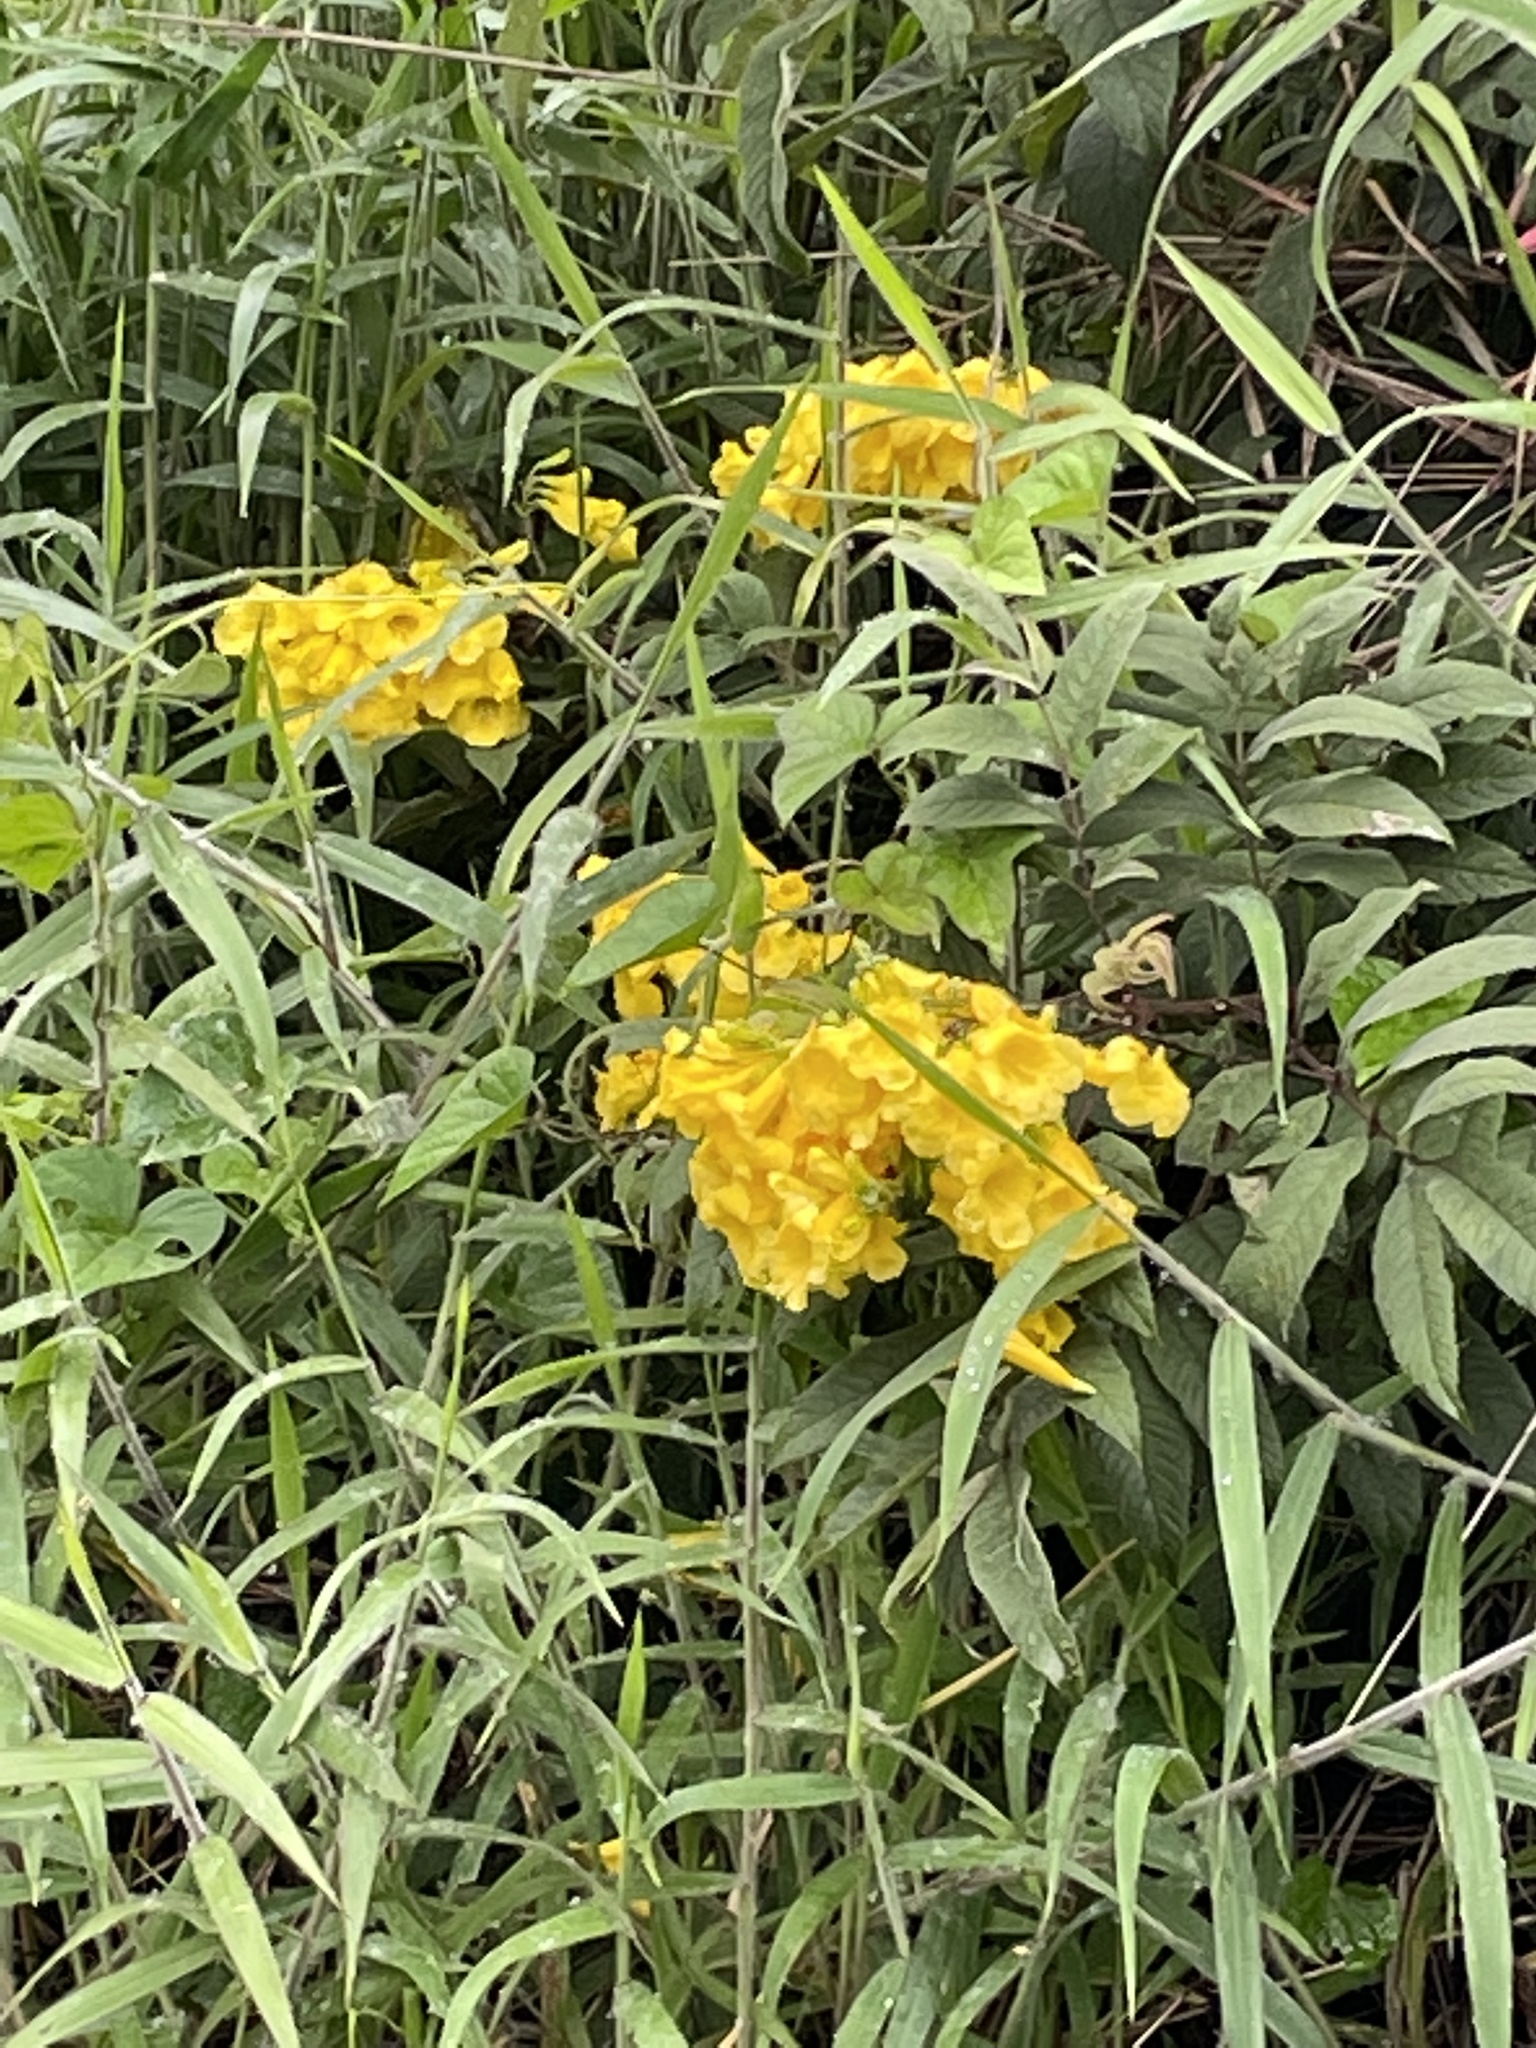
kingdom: Plantae
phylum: Tracheophyta
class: Magnoliopsida
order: Lamiales
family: Bignoniaceae
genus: Tecoma
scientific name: Tecoma stans
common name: Yellow trumpetbush
